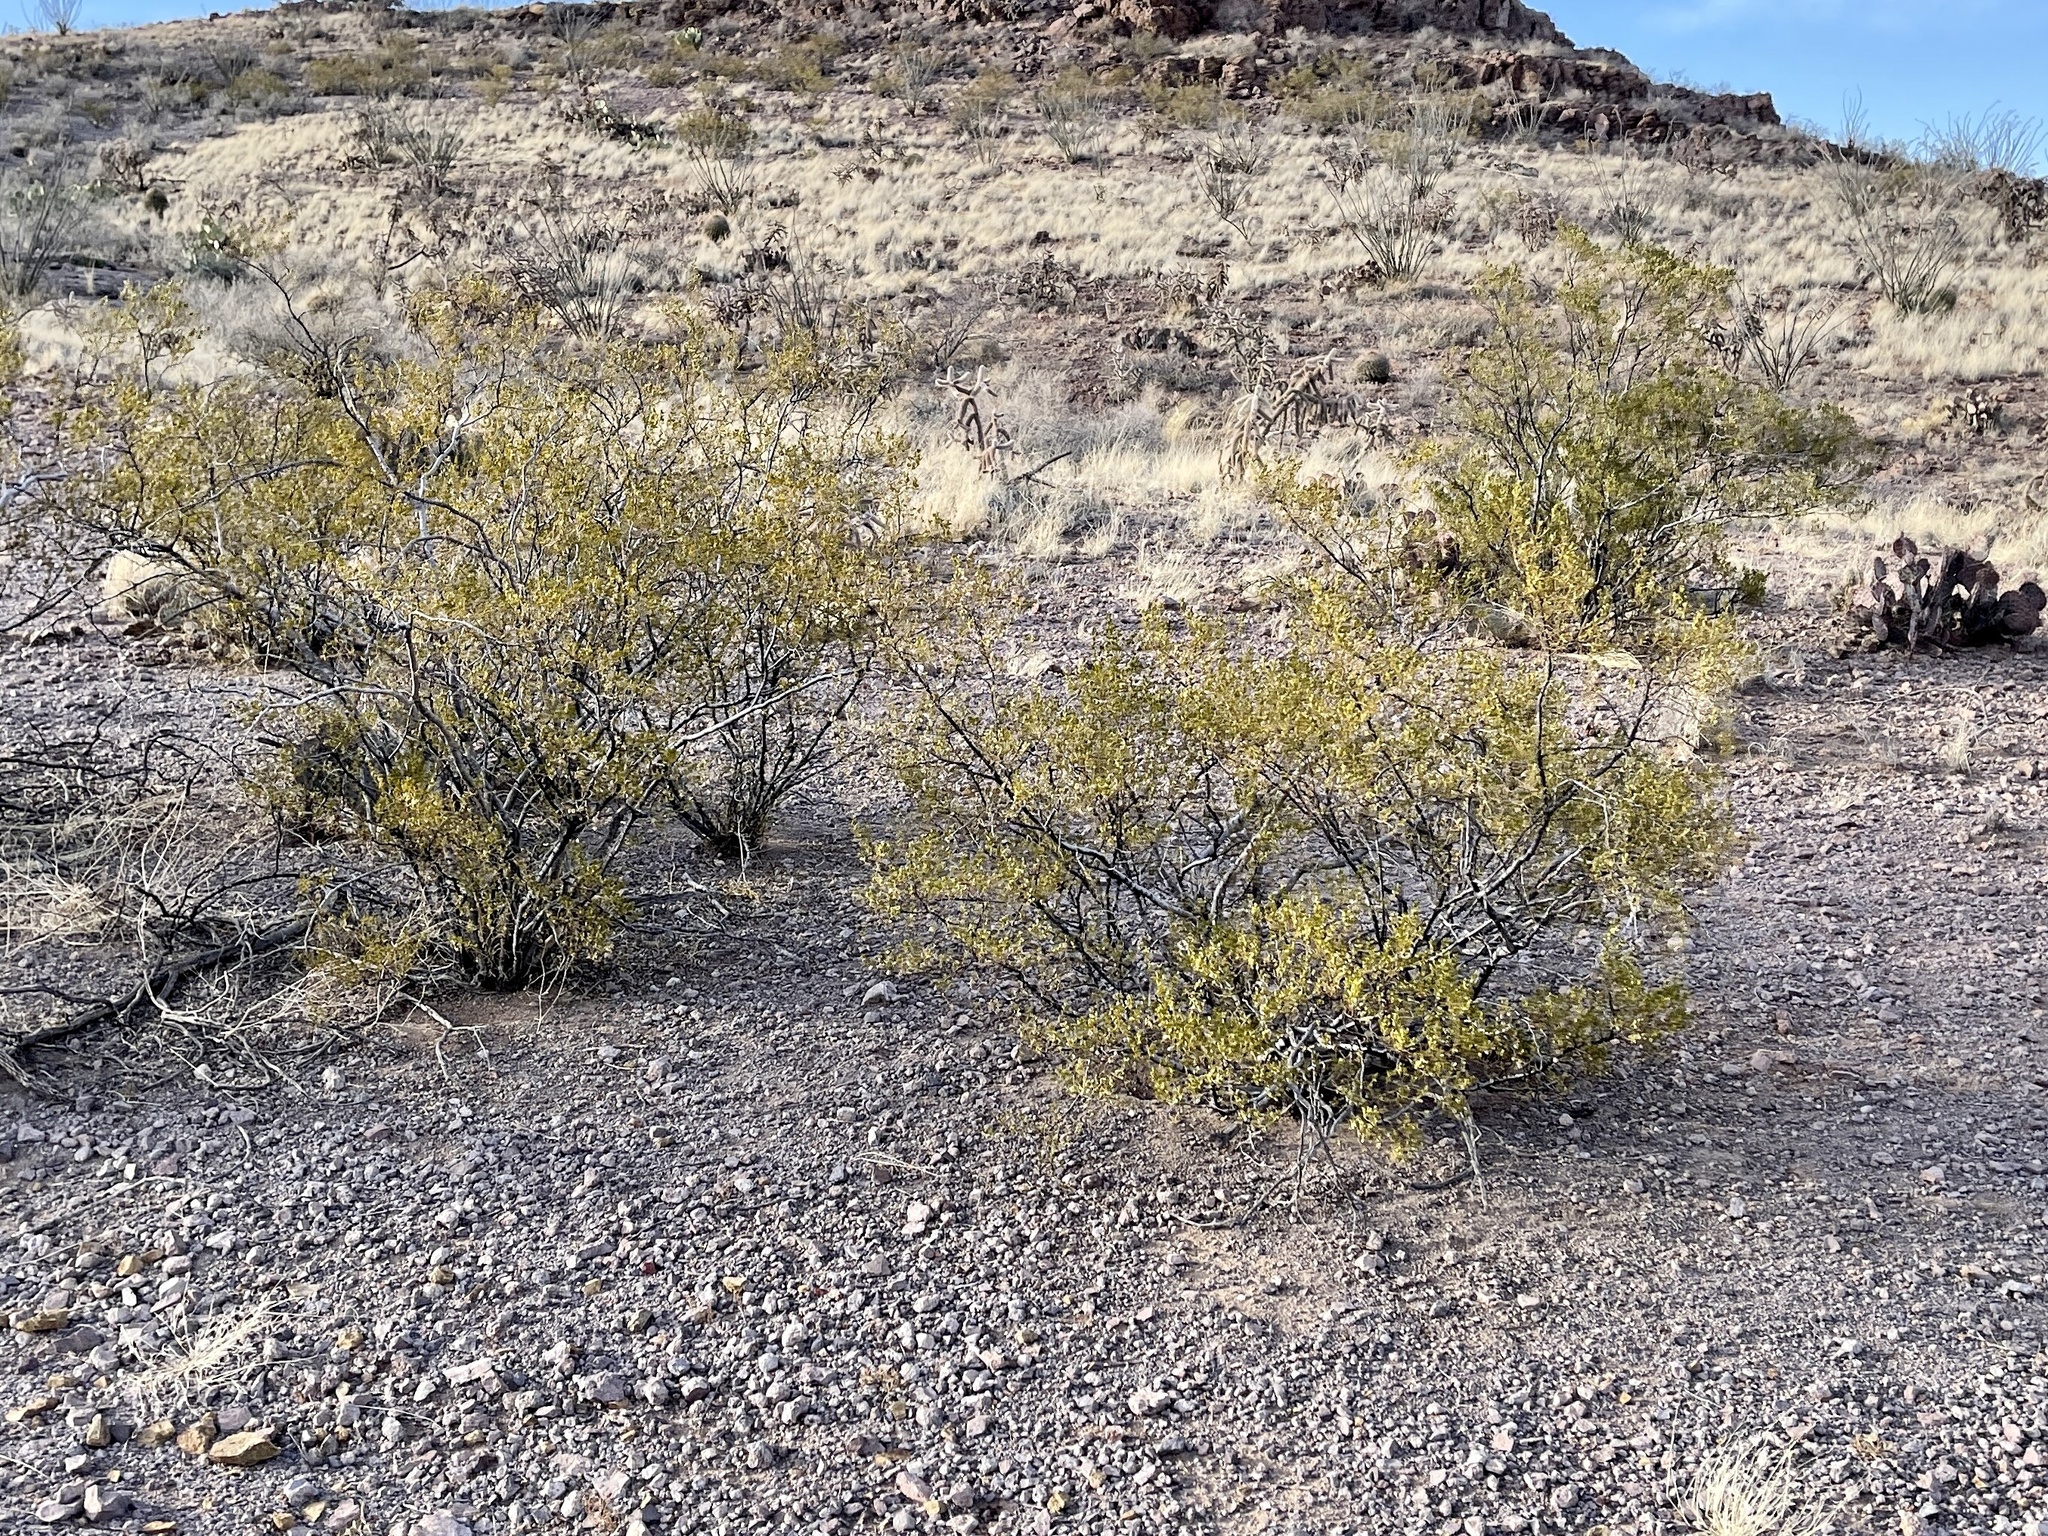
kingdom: Plantae
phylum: Tracheophyta
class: Magnoliopsida
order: Zygophyllales
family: Zygophyllaceae
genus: Larrea
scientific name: Larrea tridentata
